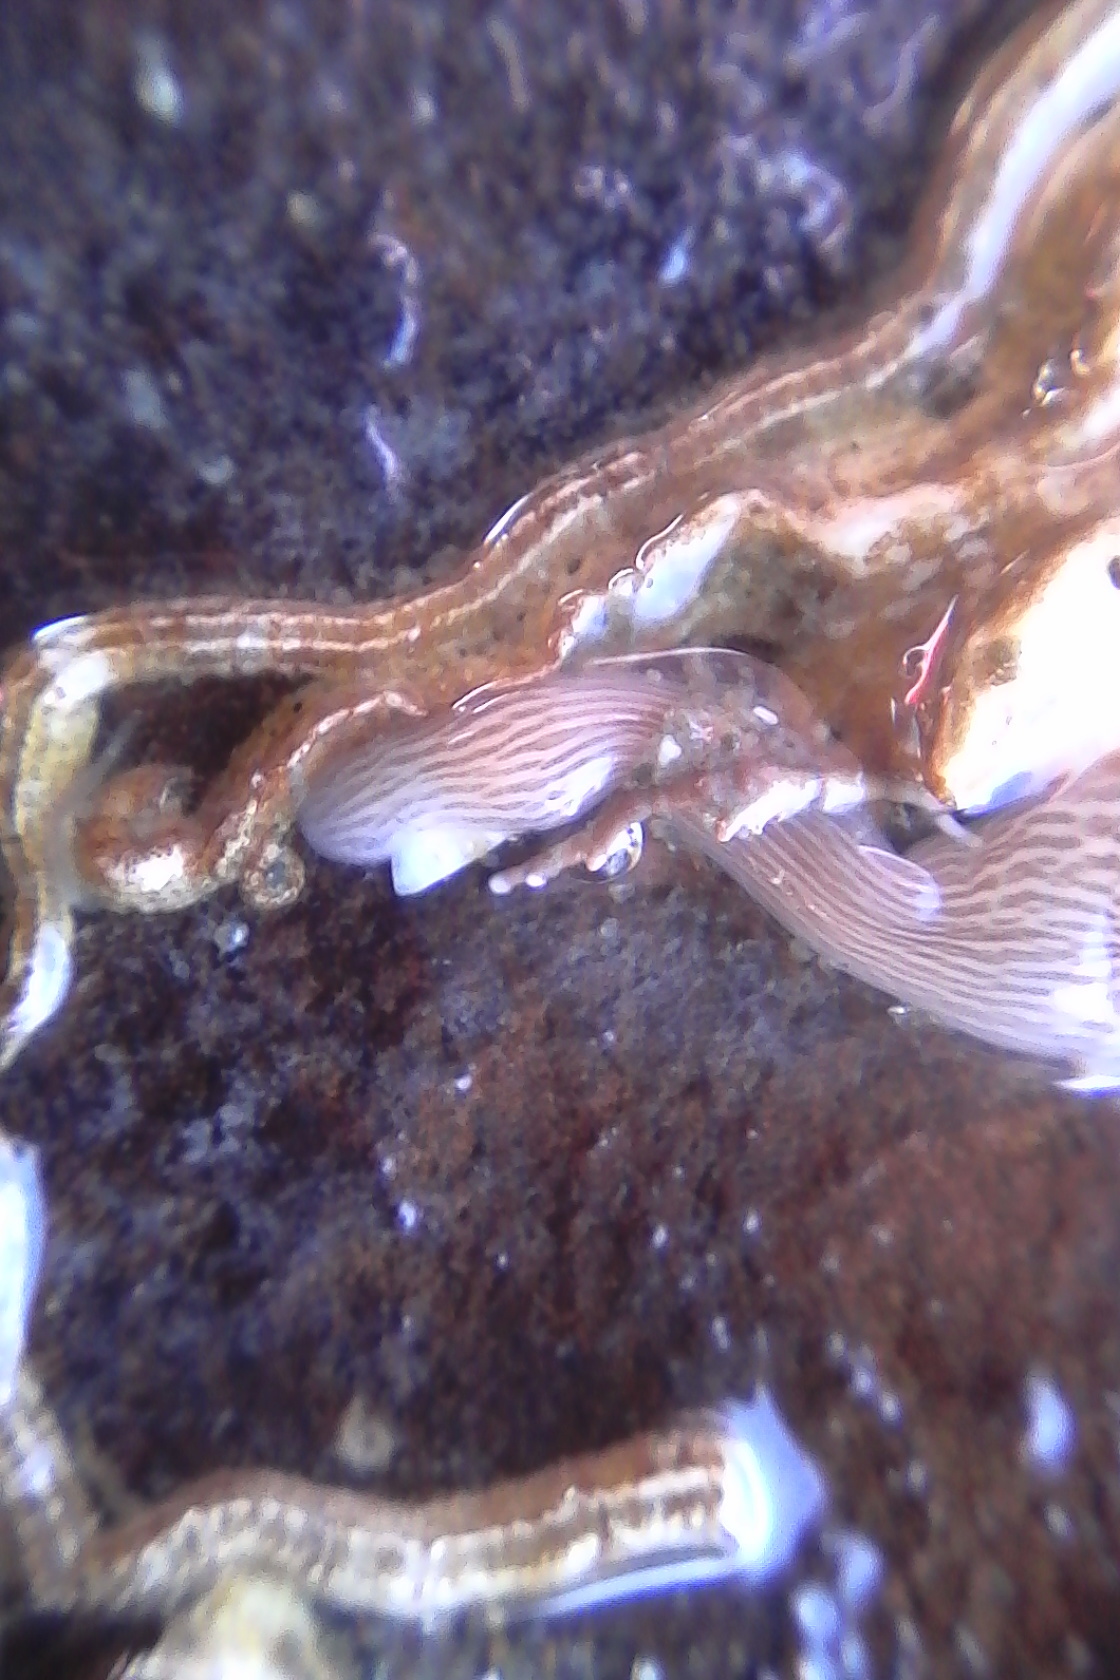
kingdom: Animalia
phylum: Nemertea
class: Pilidiophora
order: Heteronemertea
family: Valenciniidae
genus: Baseodiscus
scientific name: Baseodiscus delineatus
